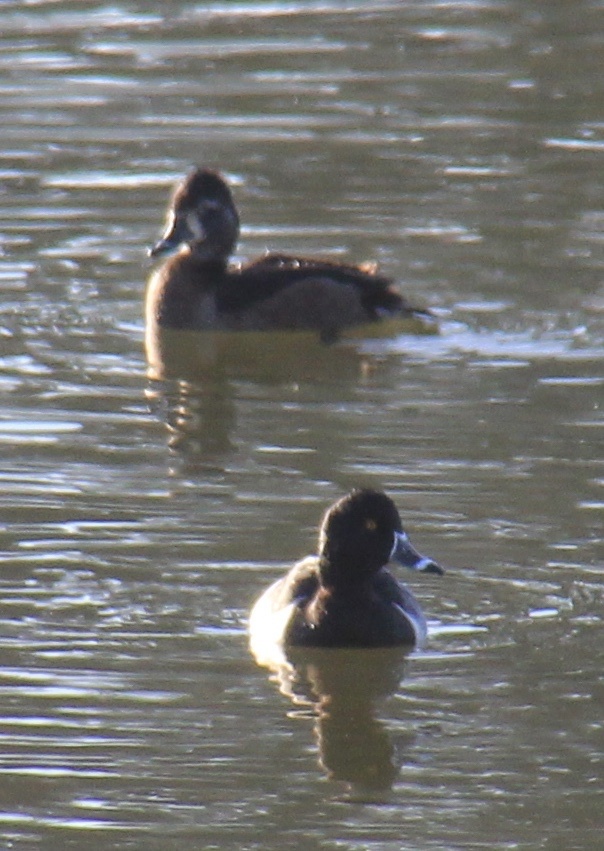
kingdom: Animalia
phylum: Chordata
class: Aves
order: Anseriformes
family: Anatidae
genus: Aythya
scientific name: Aythya collaris
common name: Ring-necked duck
